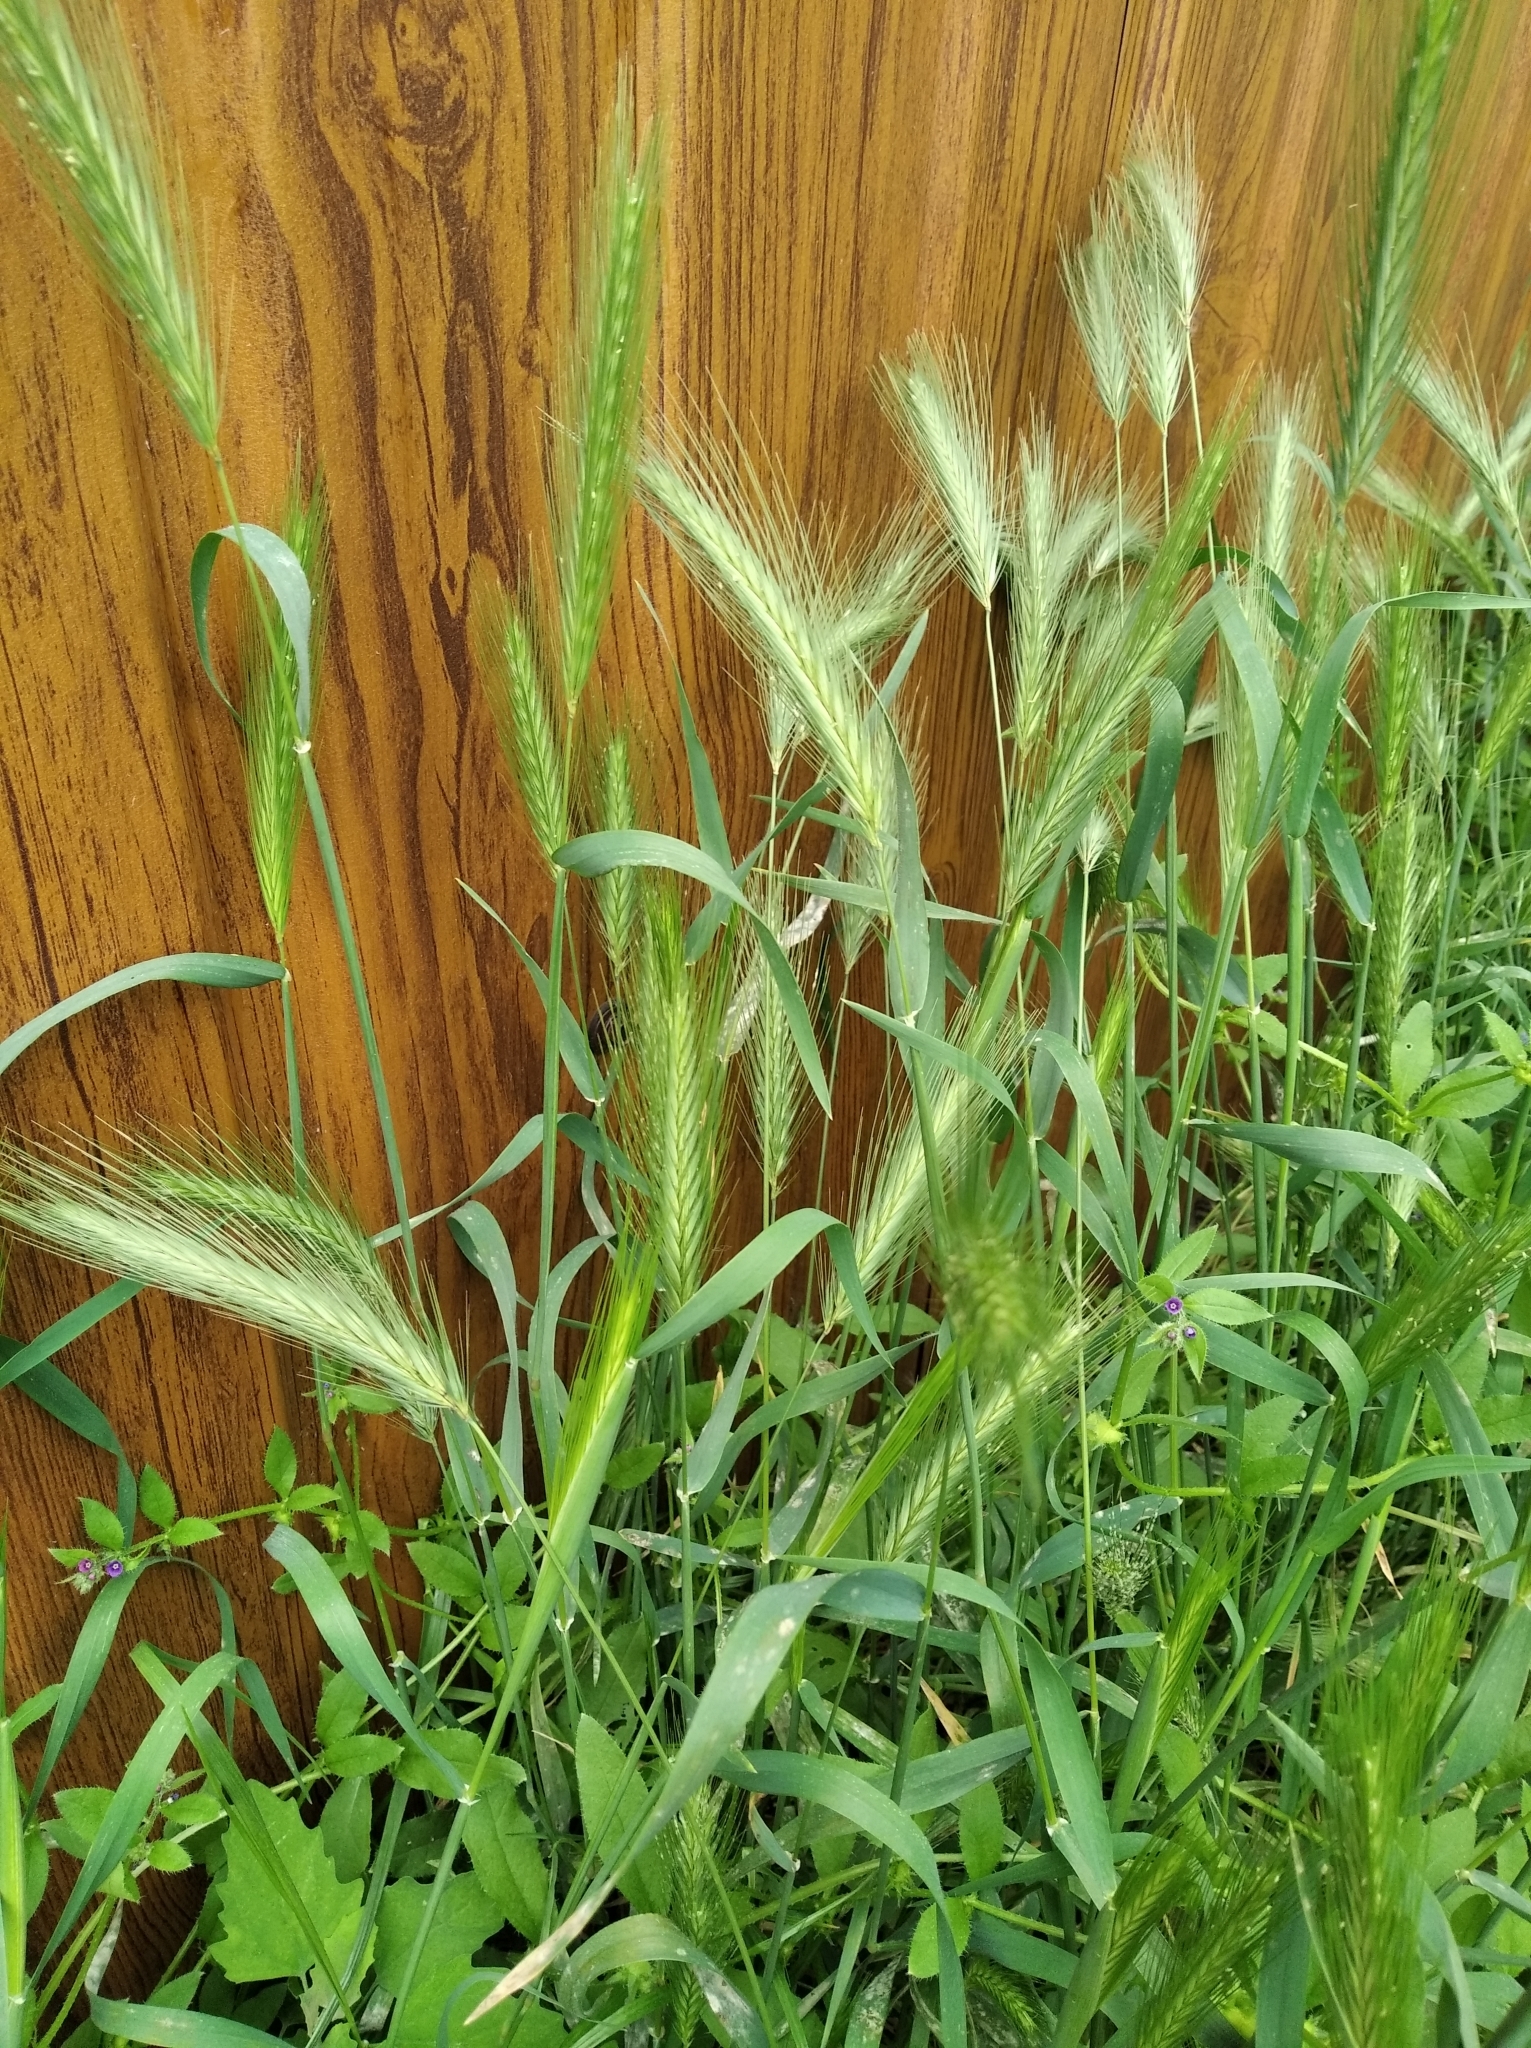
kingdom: Plantae
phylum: Tracheophyta
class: Liliopsida
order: Poales
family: Poaceae
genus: Hordeum
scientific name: Hordeum murinum
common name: Wall barley
